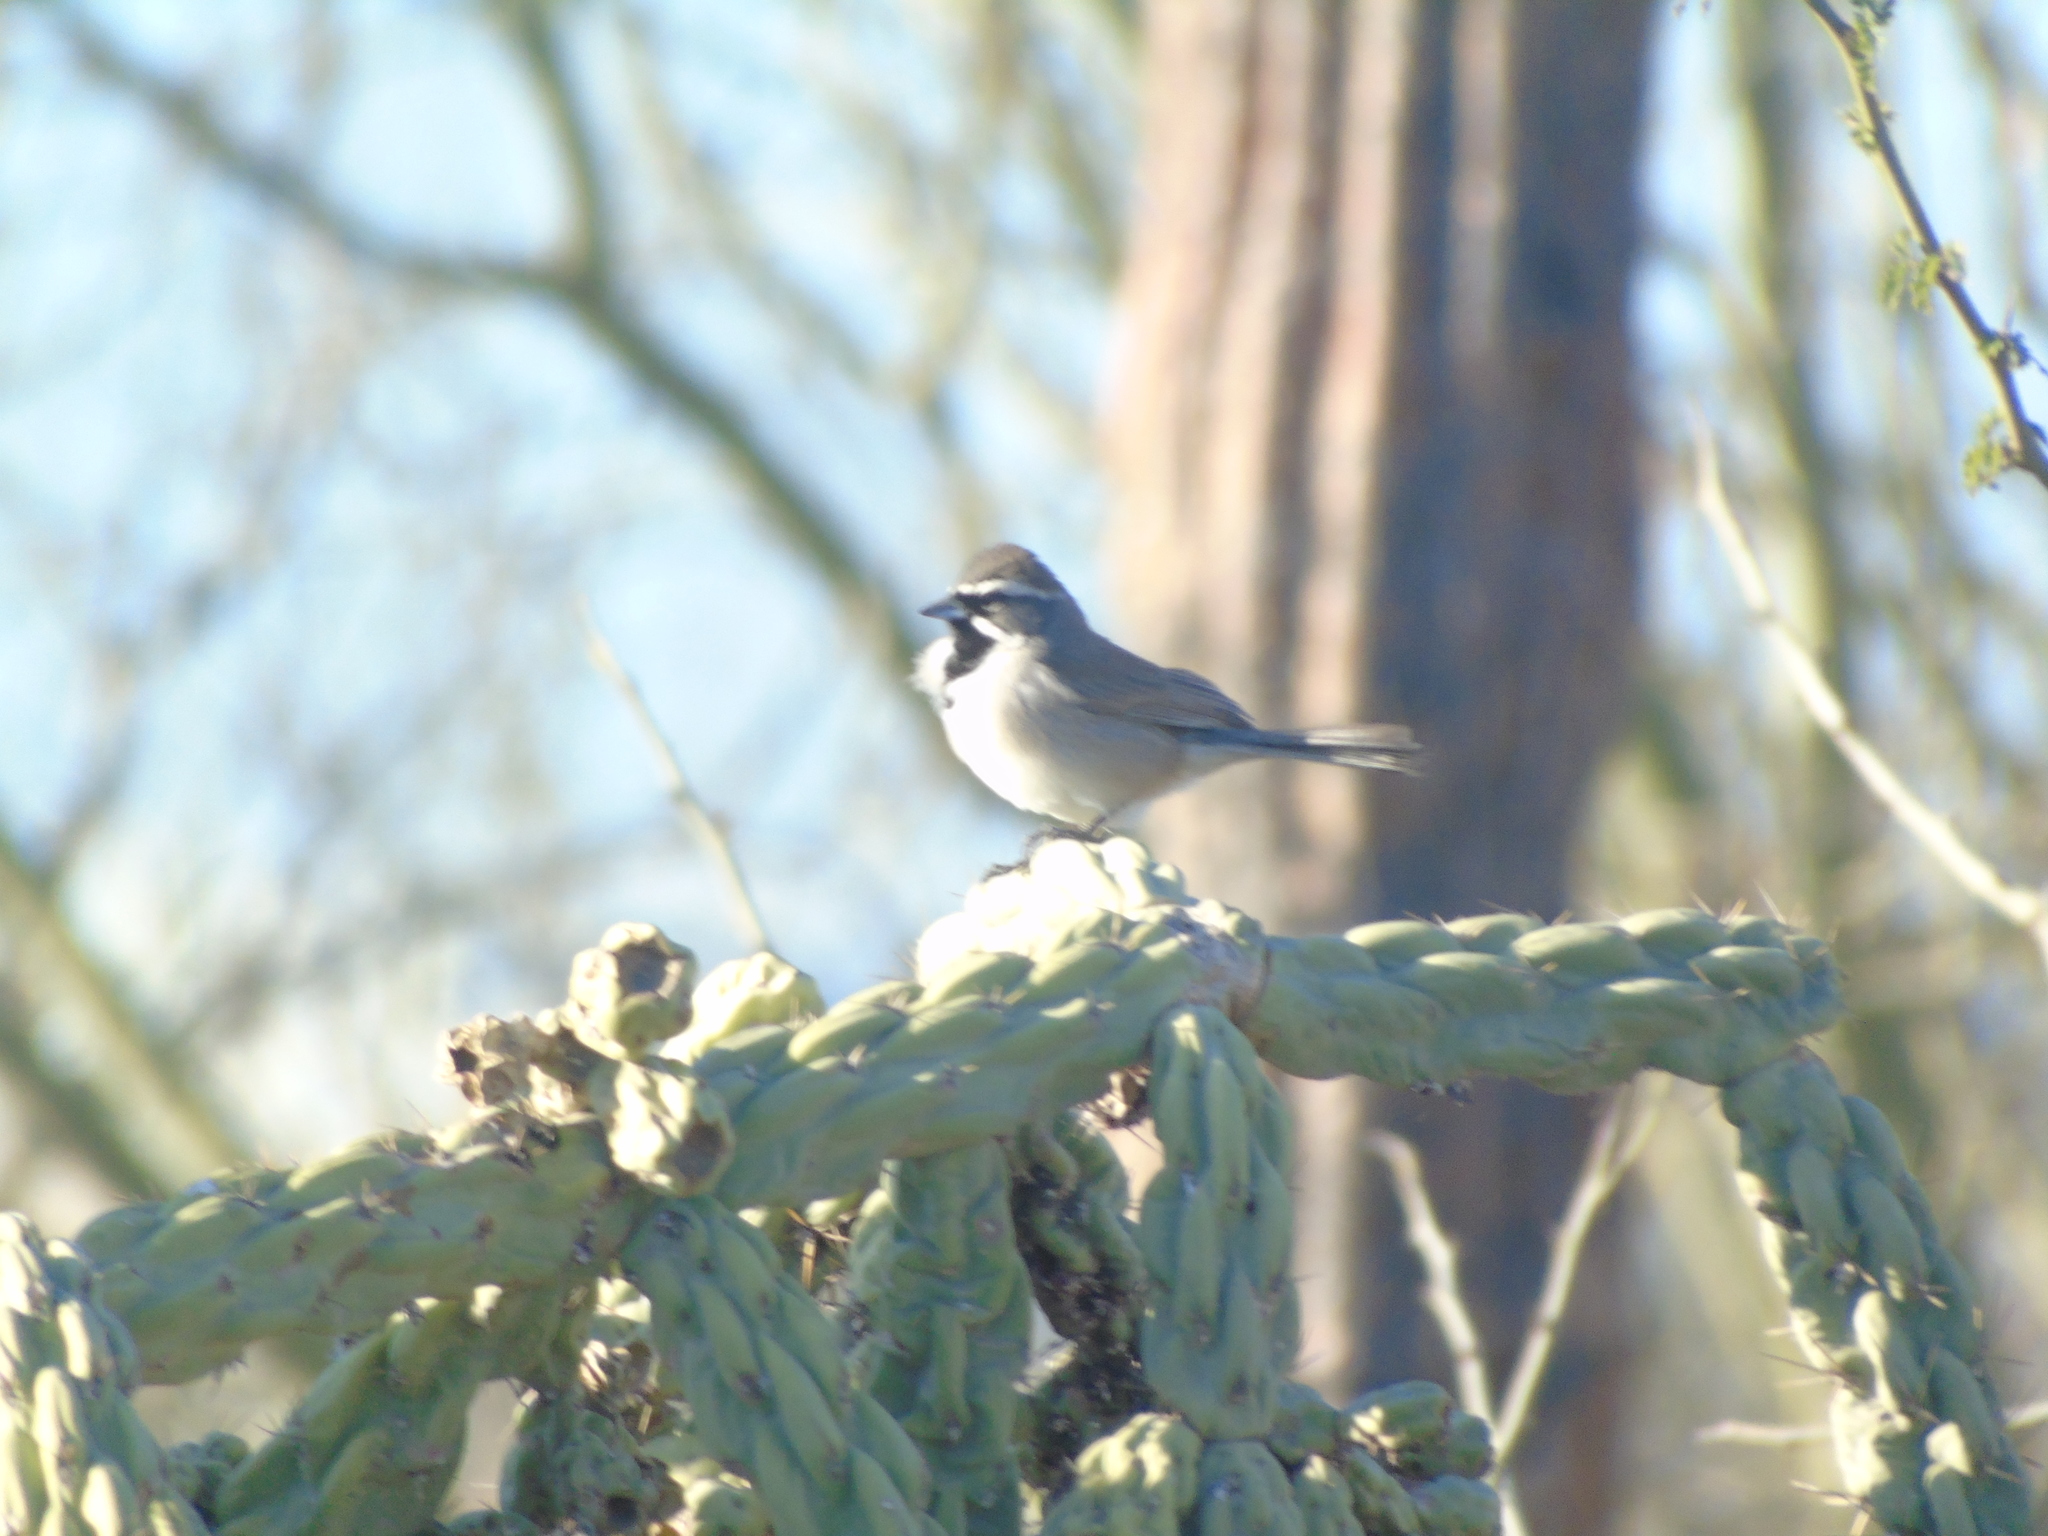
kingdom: Animalia
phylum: Chordata
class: Aves
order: Passeriformes
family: Passerellidae
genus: Amphispiza
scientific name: Amphispiza bilineata
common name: Black-throated sparrow
